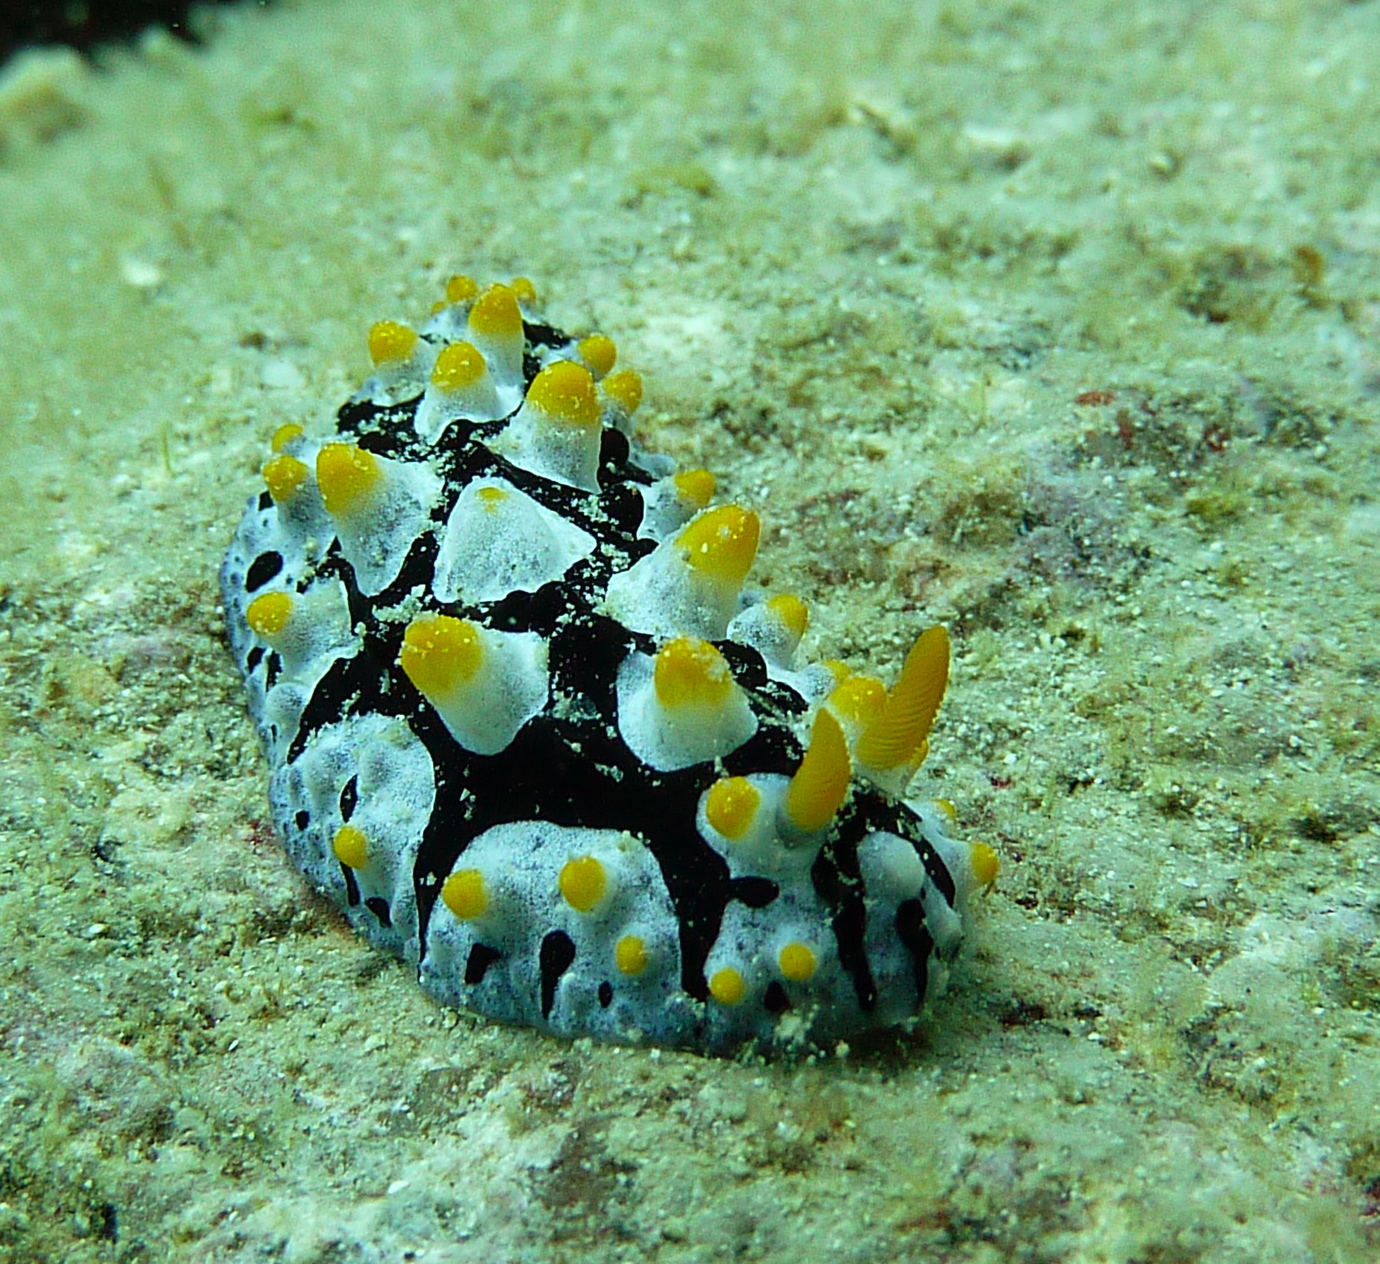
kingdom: Animalia
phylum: Mollusca
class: Gastropoda
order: Nudibranchia
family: Phyllidiidae
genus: Phyllidia
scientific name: Phyllidia picta
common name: Black-rayed phyllidia
